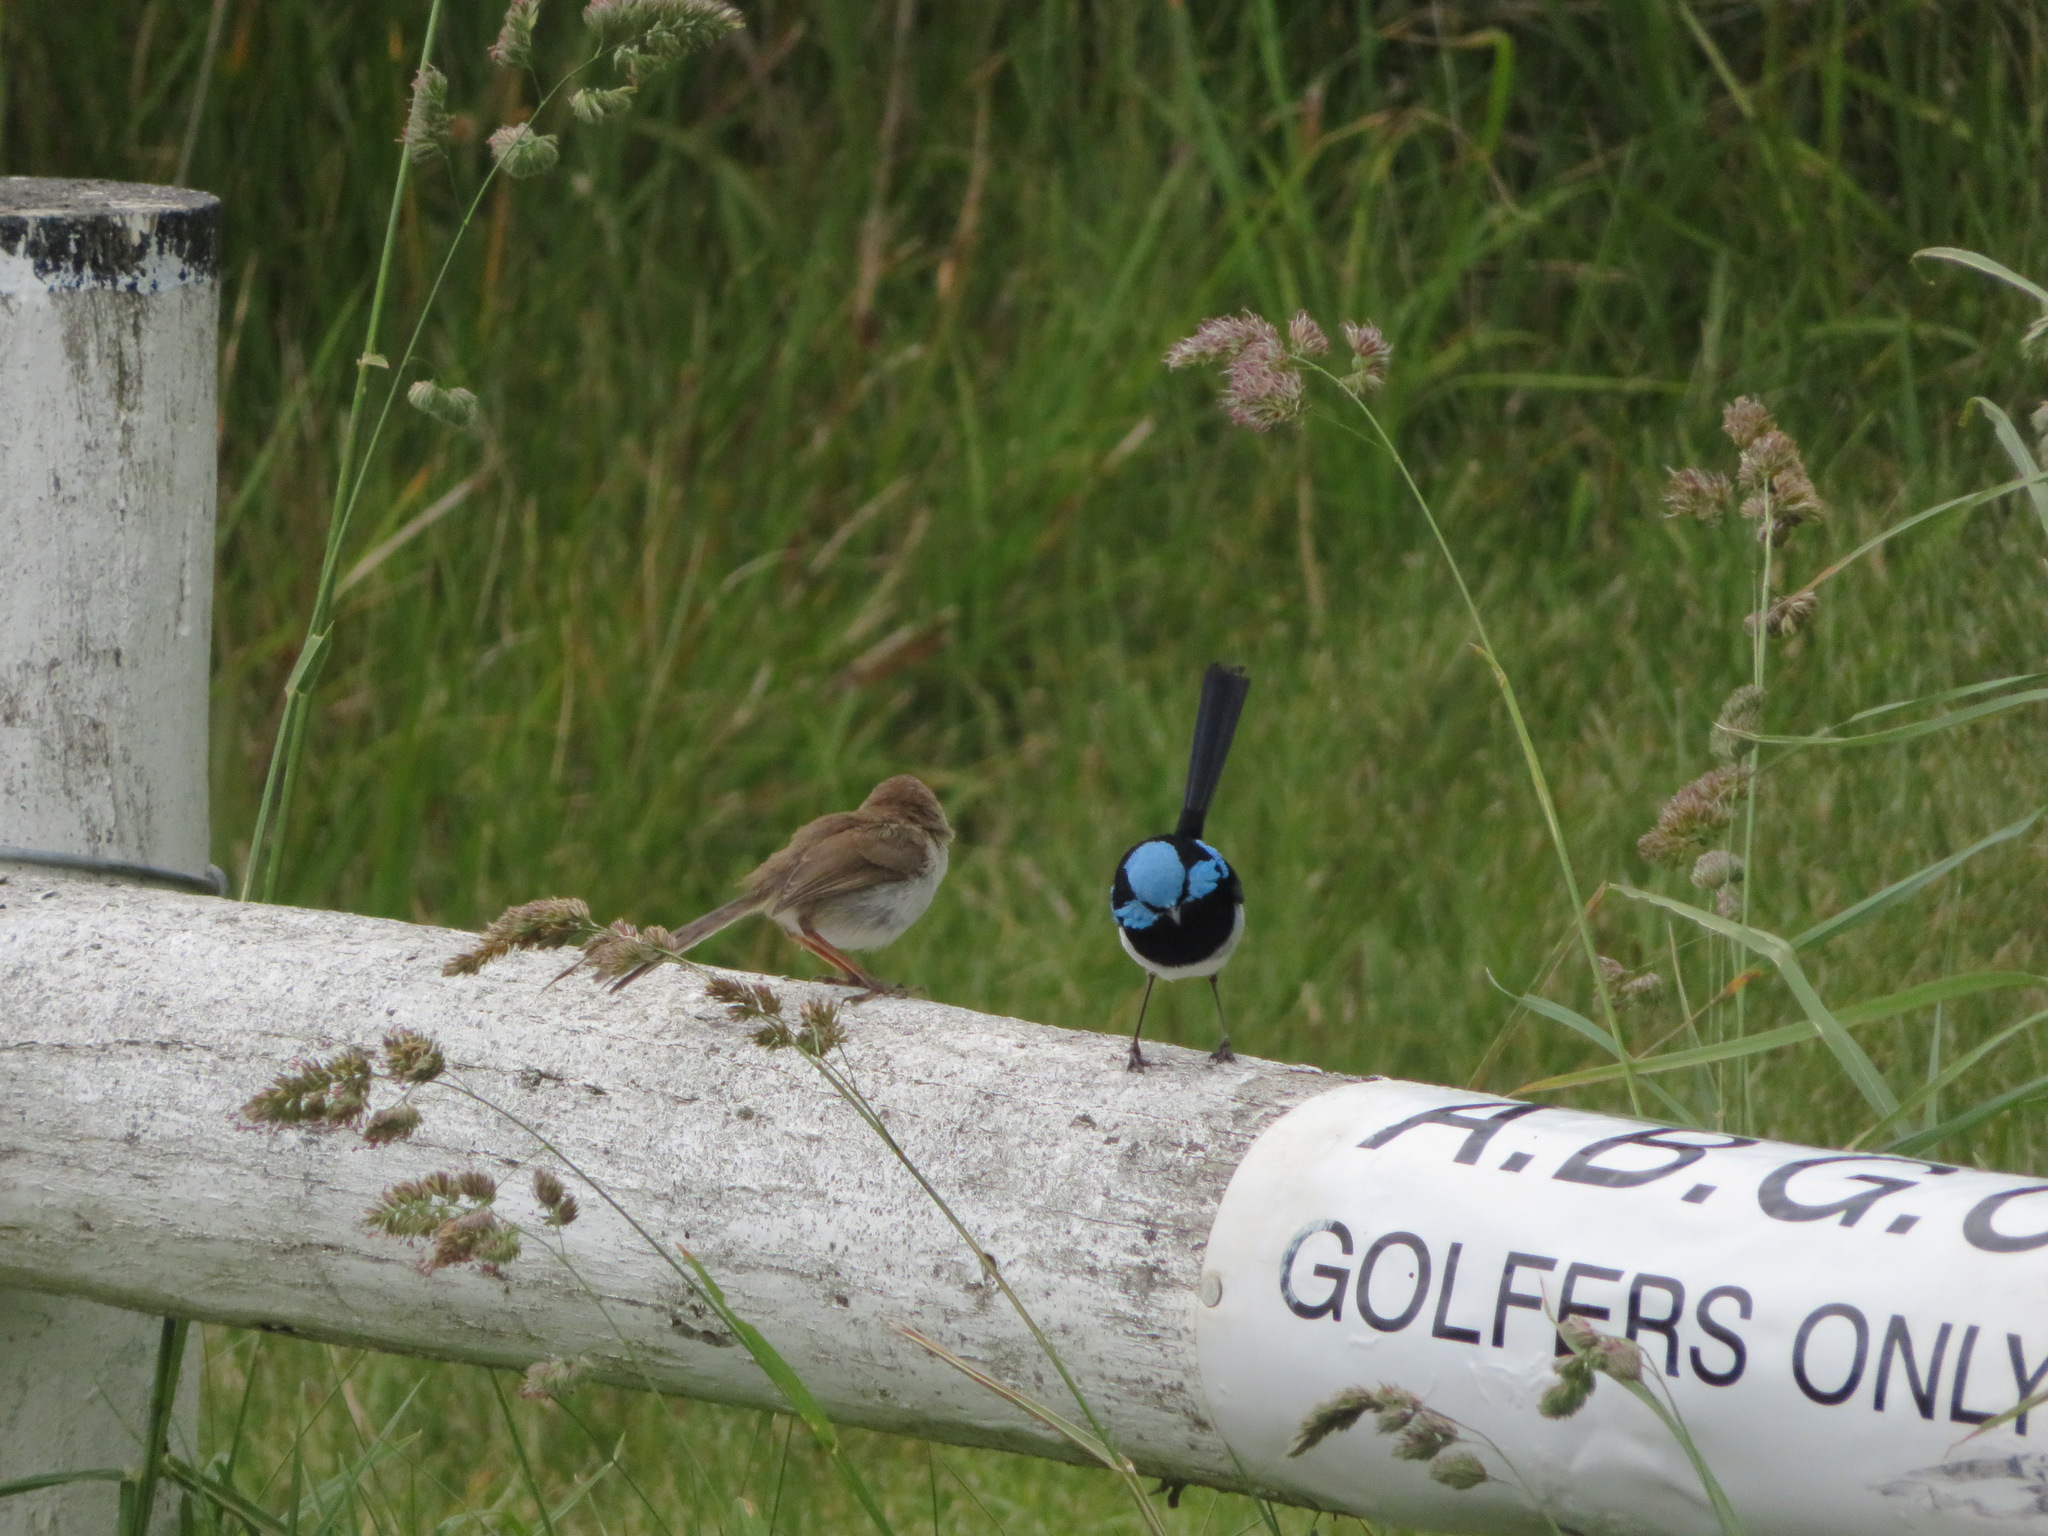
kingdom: Animalia
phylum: Chordata
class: Aves
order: Passeriformes
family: Maluridae
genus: Malurus
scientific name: Malurus cyaneus
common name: Superb fairywren
